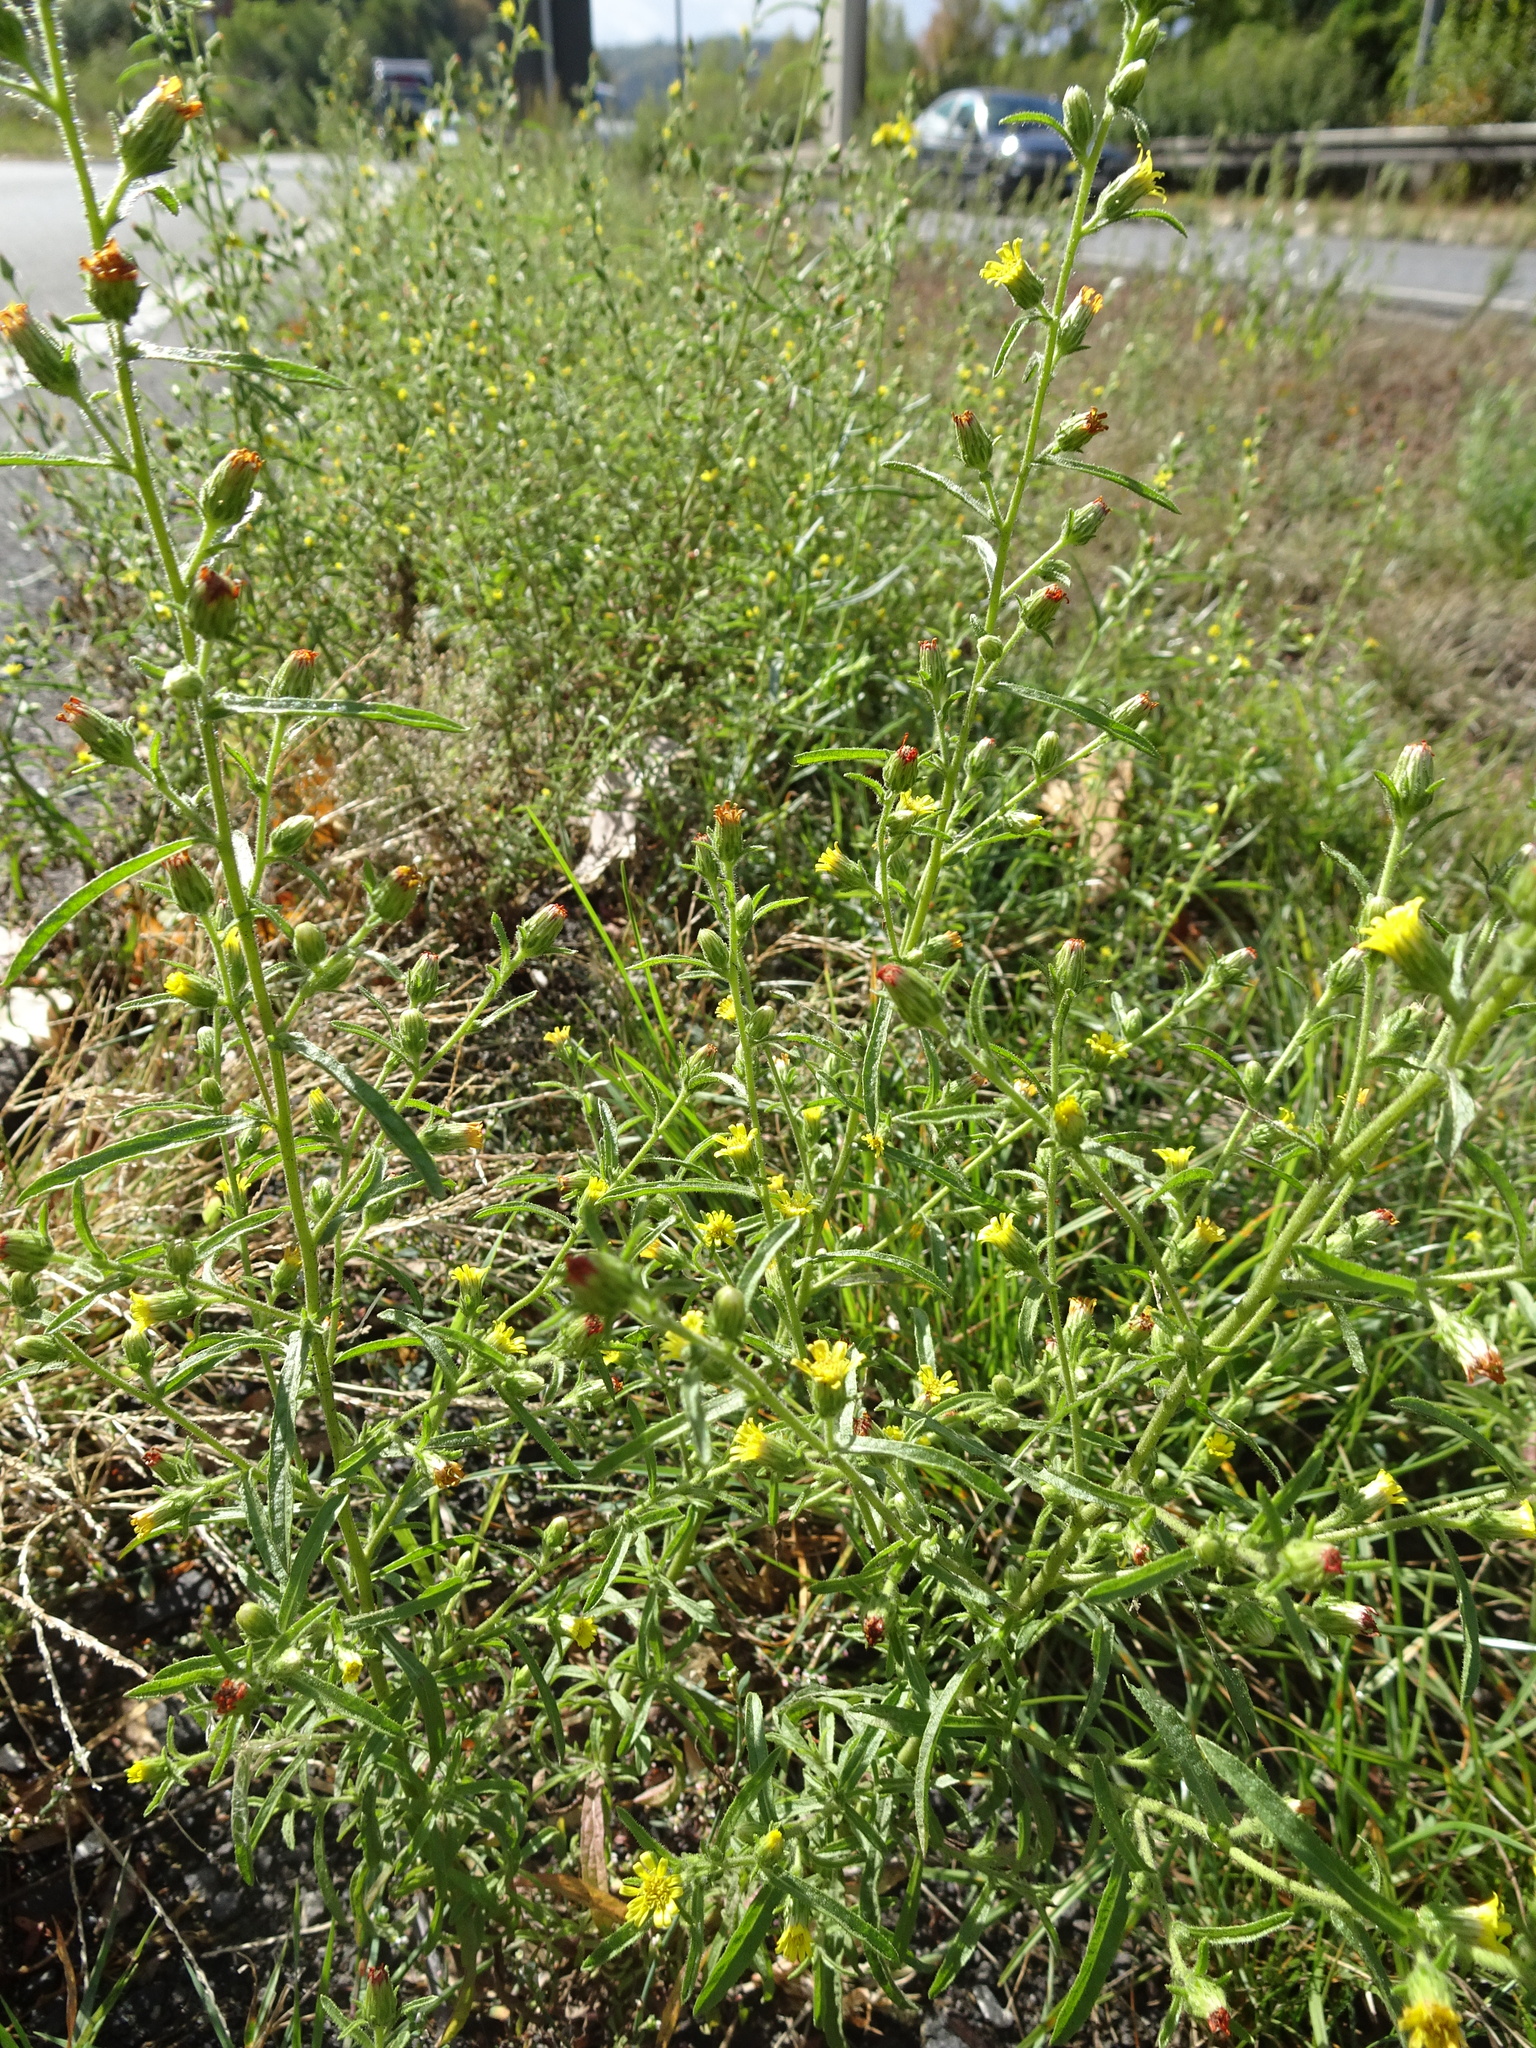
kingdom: Plantae
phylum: Tracheophyta
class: Magnoliopsida
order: Asterales
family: Asteraceae
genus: Dittrichia
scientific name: Dittrichia graveolens
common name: Stinking fleabane
